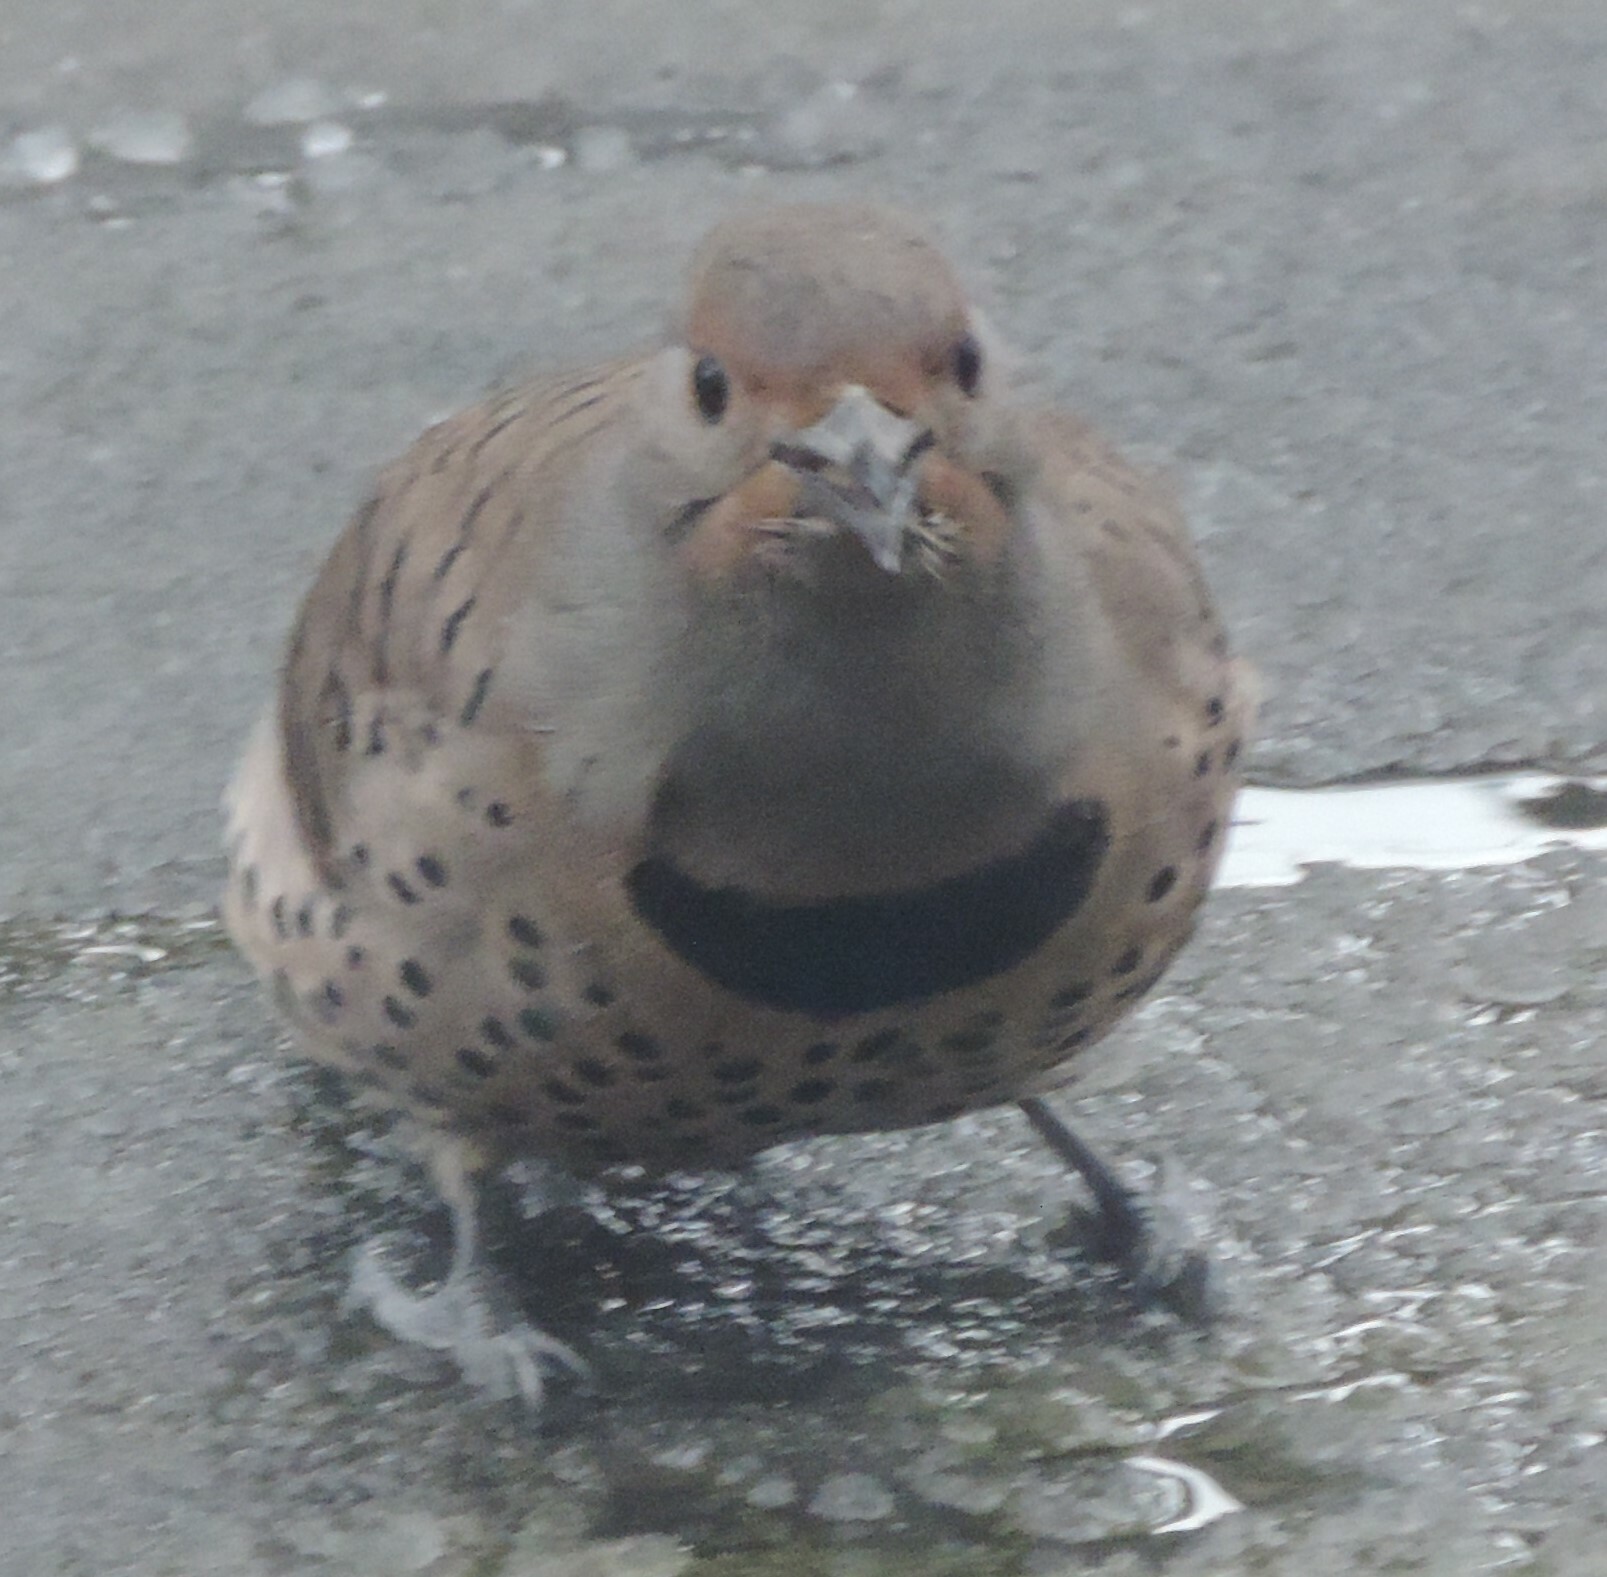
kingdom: Animalia
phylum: Chordata
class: Aves
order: Piciformes
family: Picidae
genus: Colaptes
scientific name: Colaptes auratus
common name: Northern flicker
